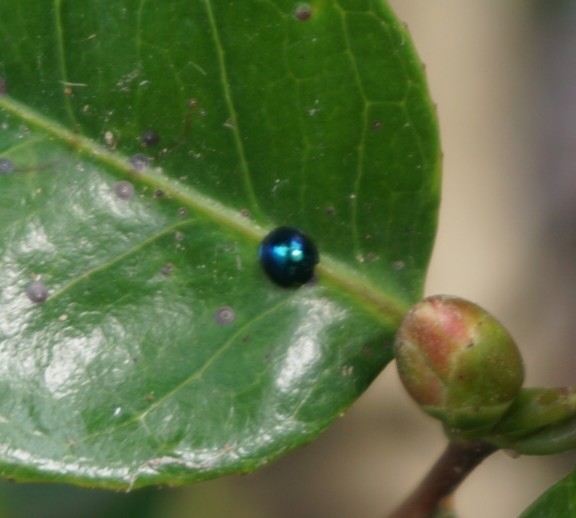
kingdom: Animalia
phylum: Arthropoda
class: Insecta
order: Coleoptera
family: Coccinellidae
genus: Halmus
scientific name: Halmus chalybeus
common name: Steel blue ladybird beetle
